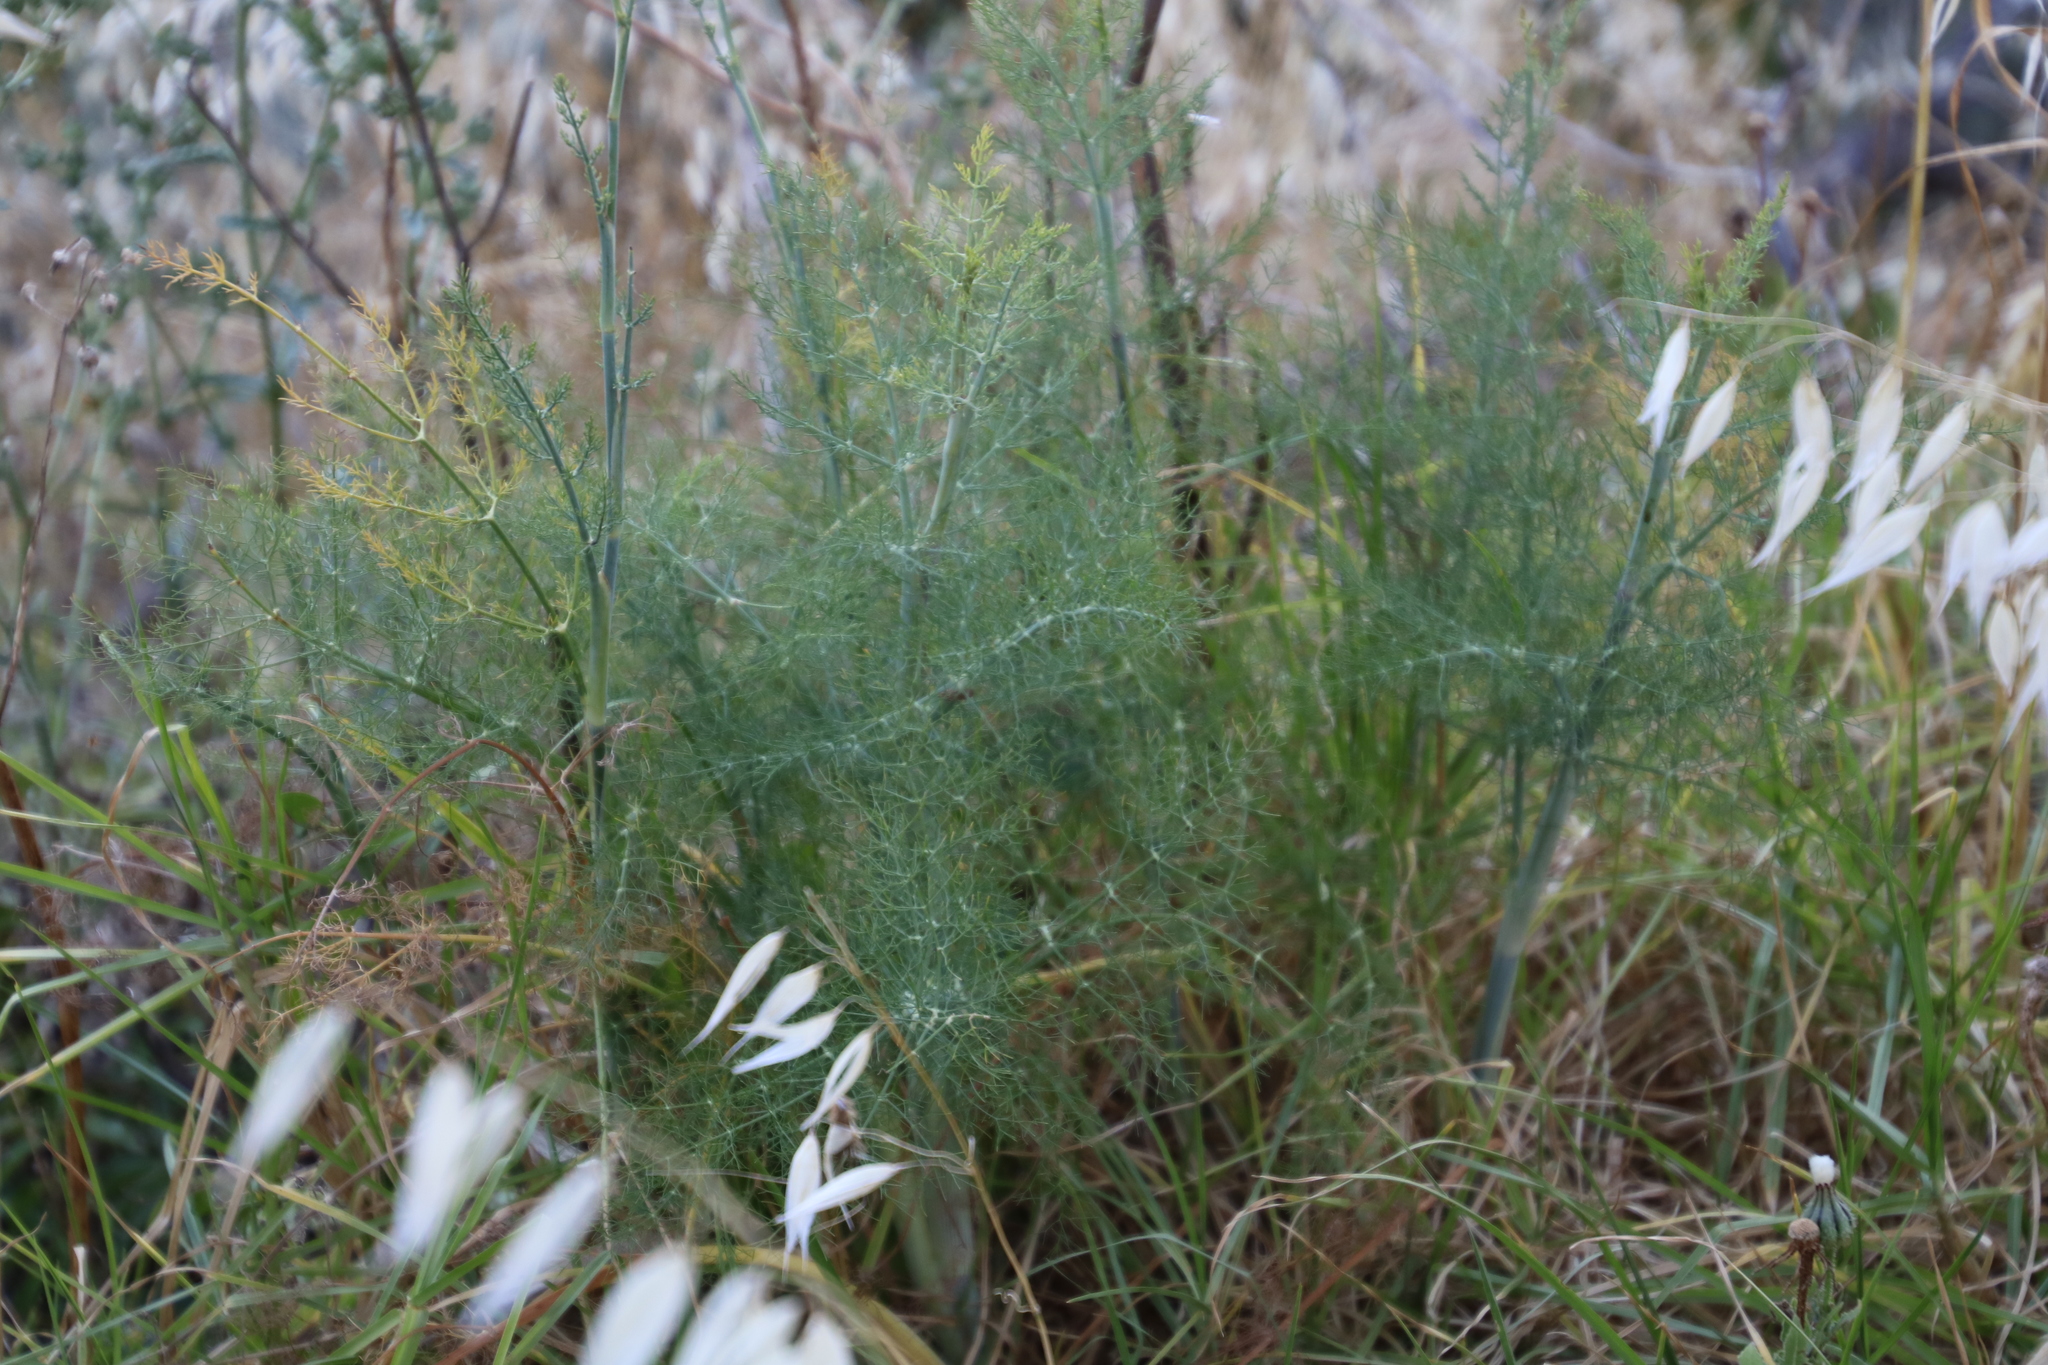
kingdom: Plantae
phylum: Tracheophyta
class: Magnoliopsida
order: Apiales
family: Apiaceae
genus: Foeniculum
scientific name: Foeniculum vulgare
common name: Fennel
